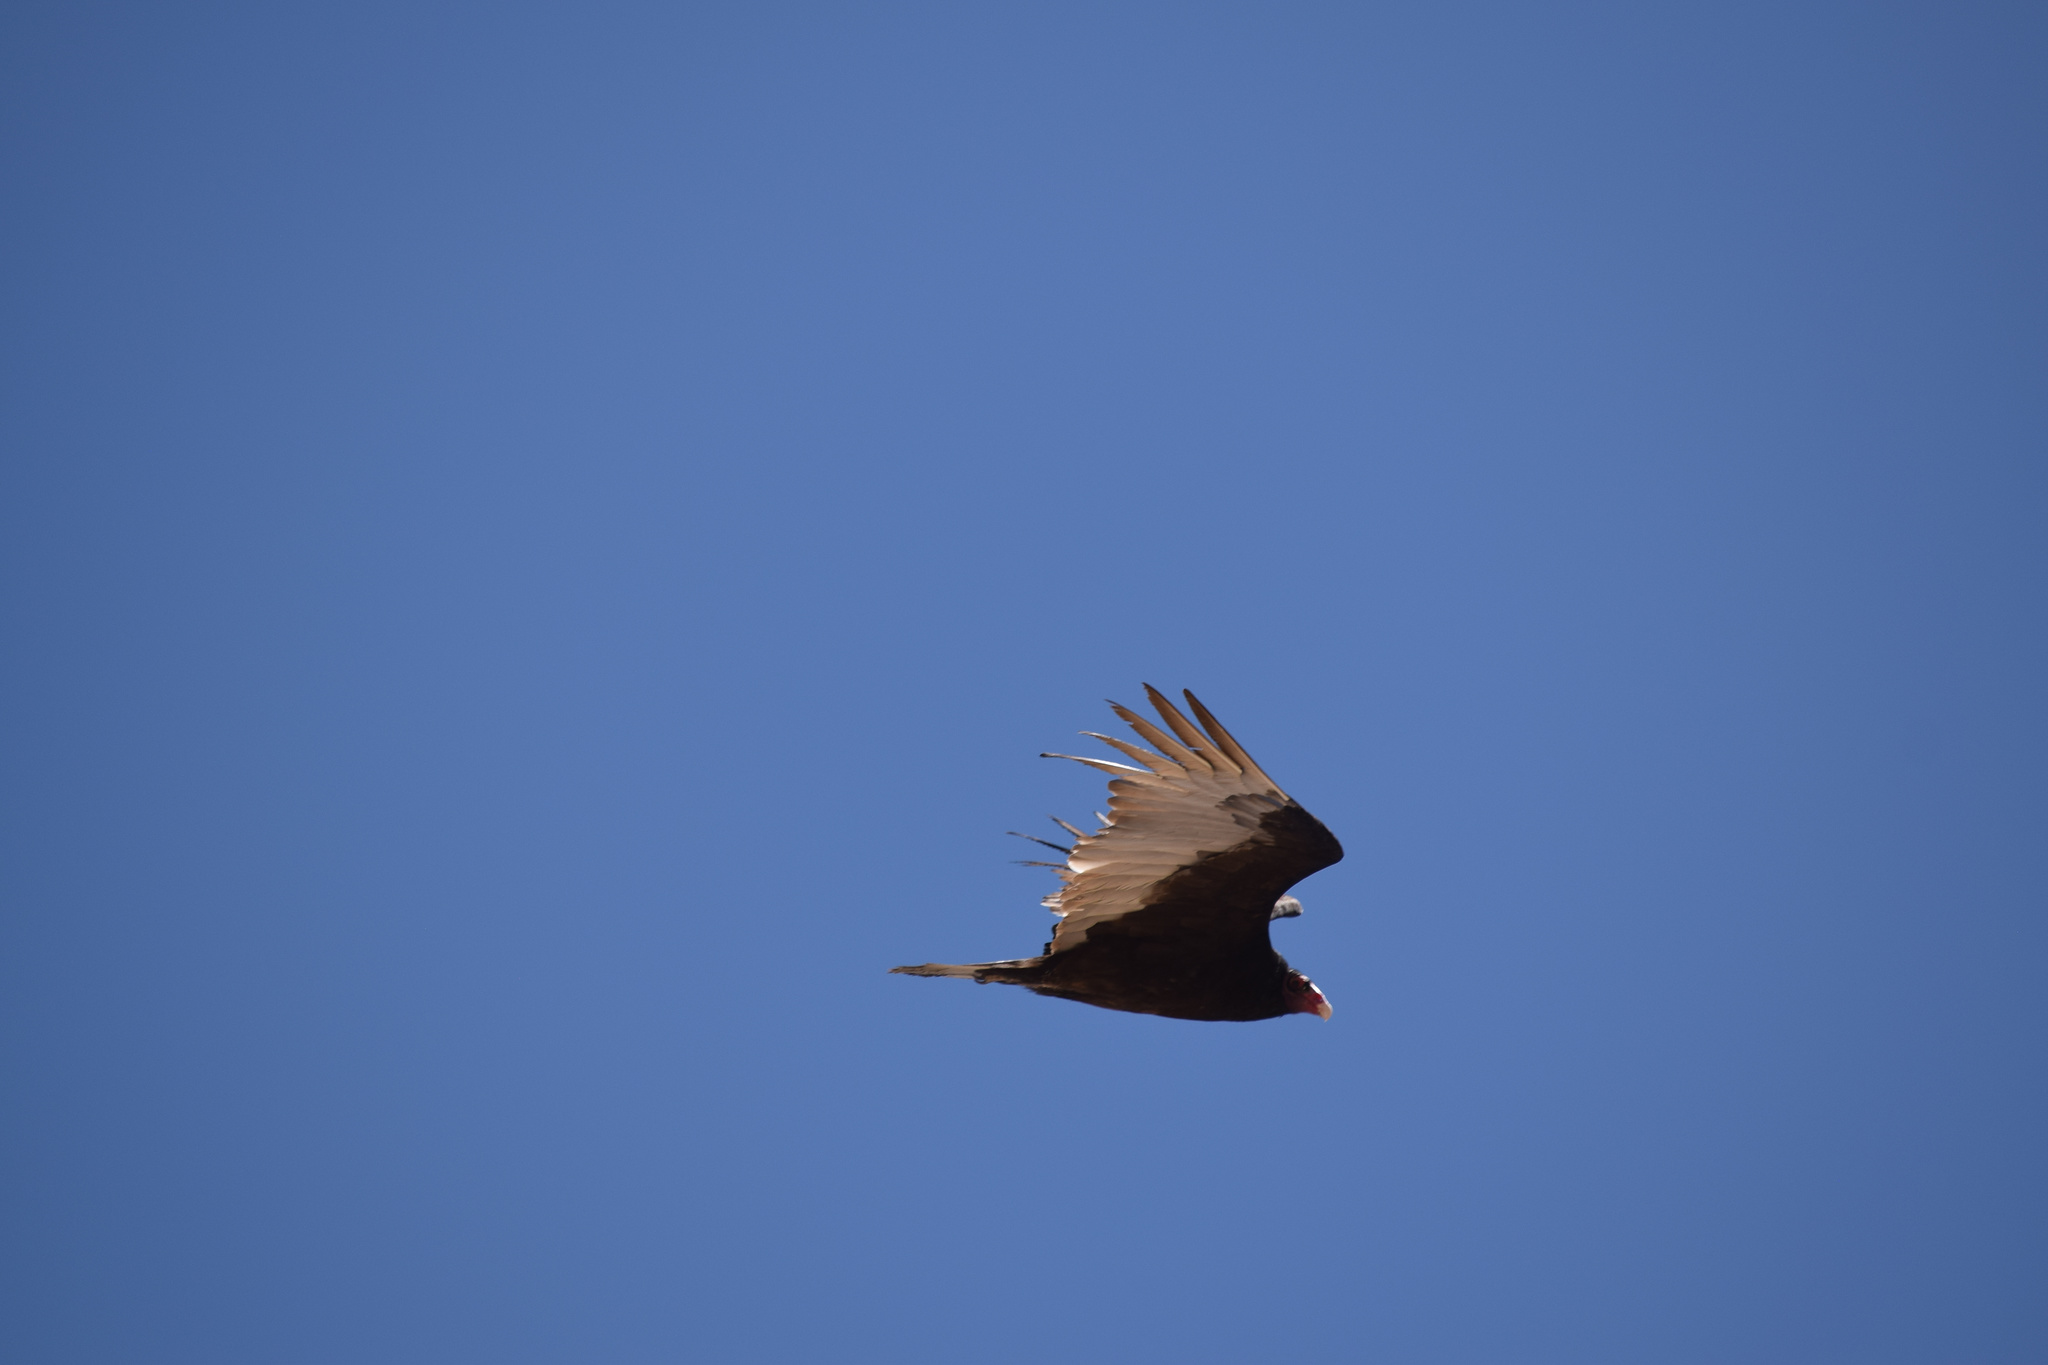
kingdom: Animalia
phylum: Chordata
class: Aves
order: Accipitriformes
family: Cathartidae
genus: Cathartes
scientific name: Cathartes aura
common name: Turkey vulture
